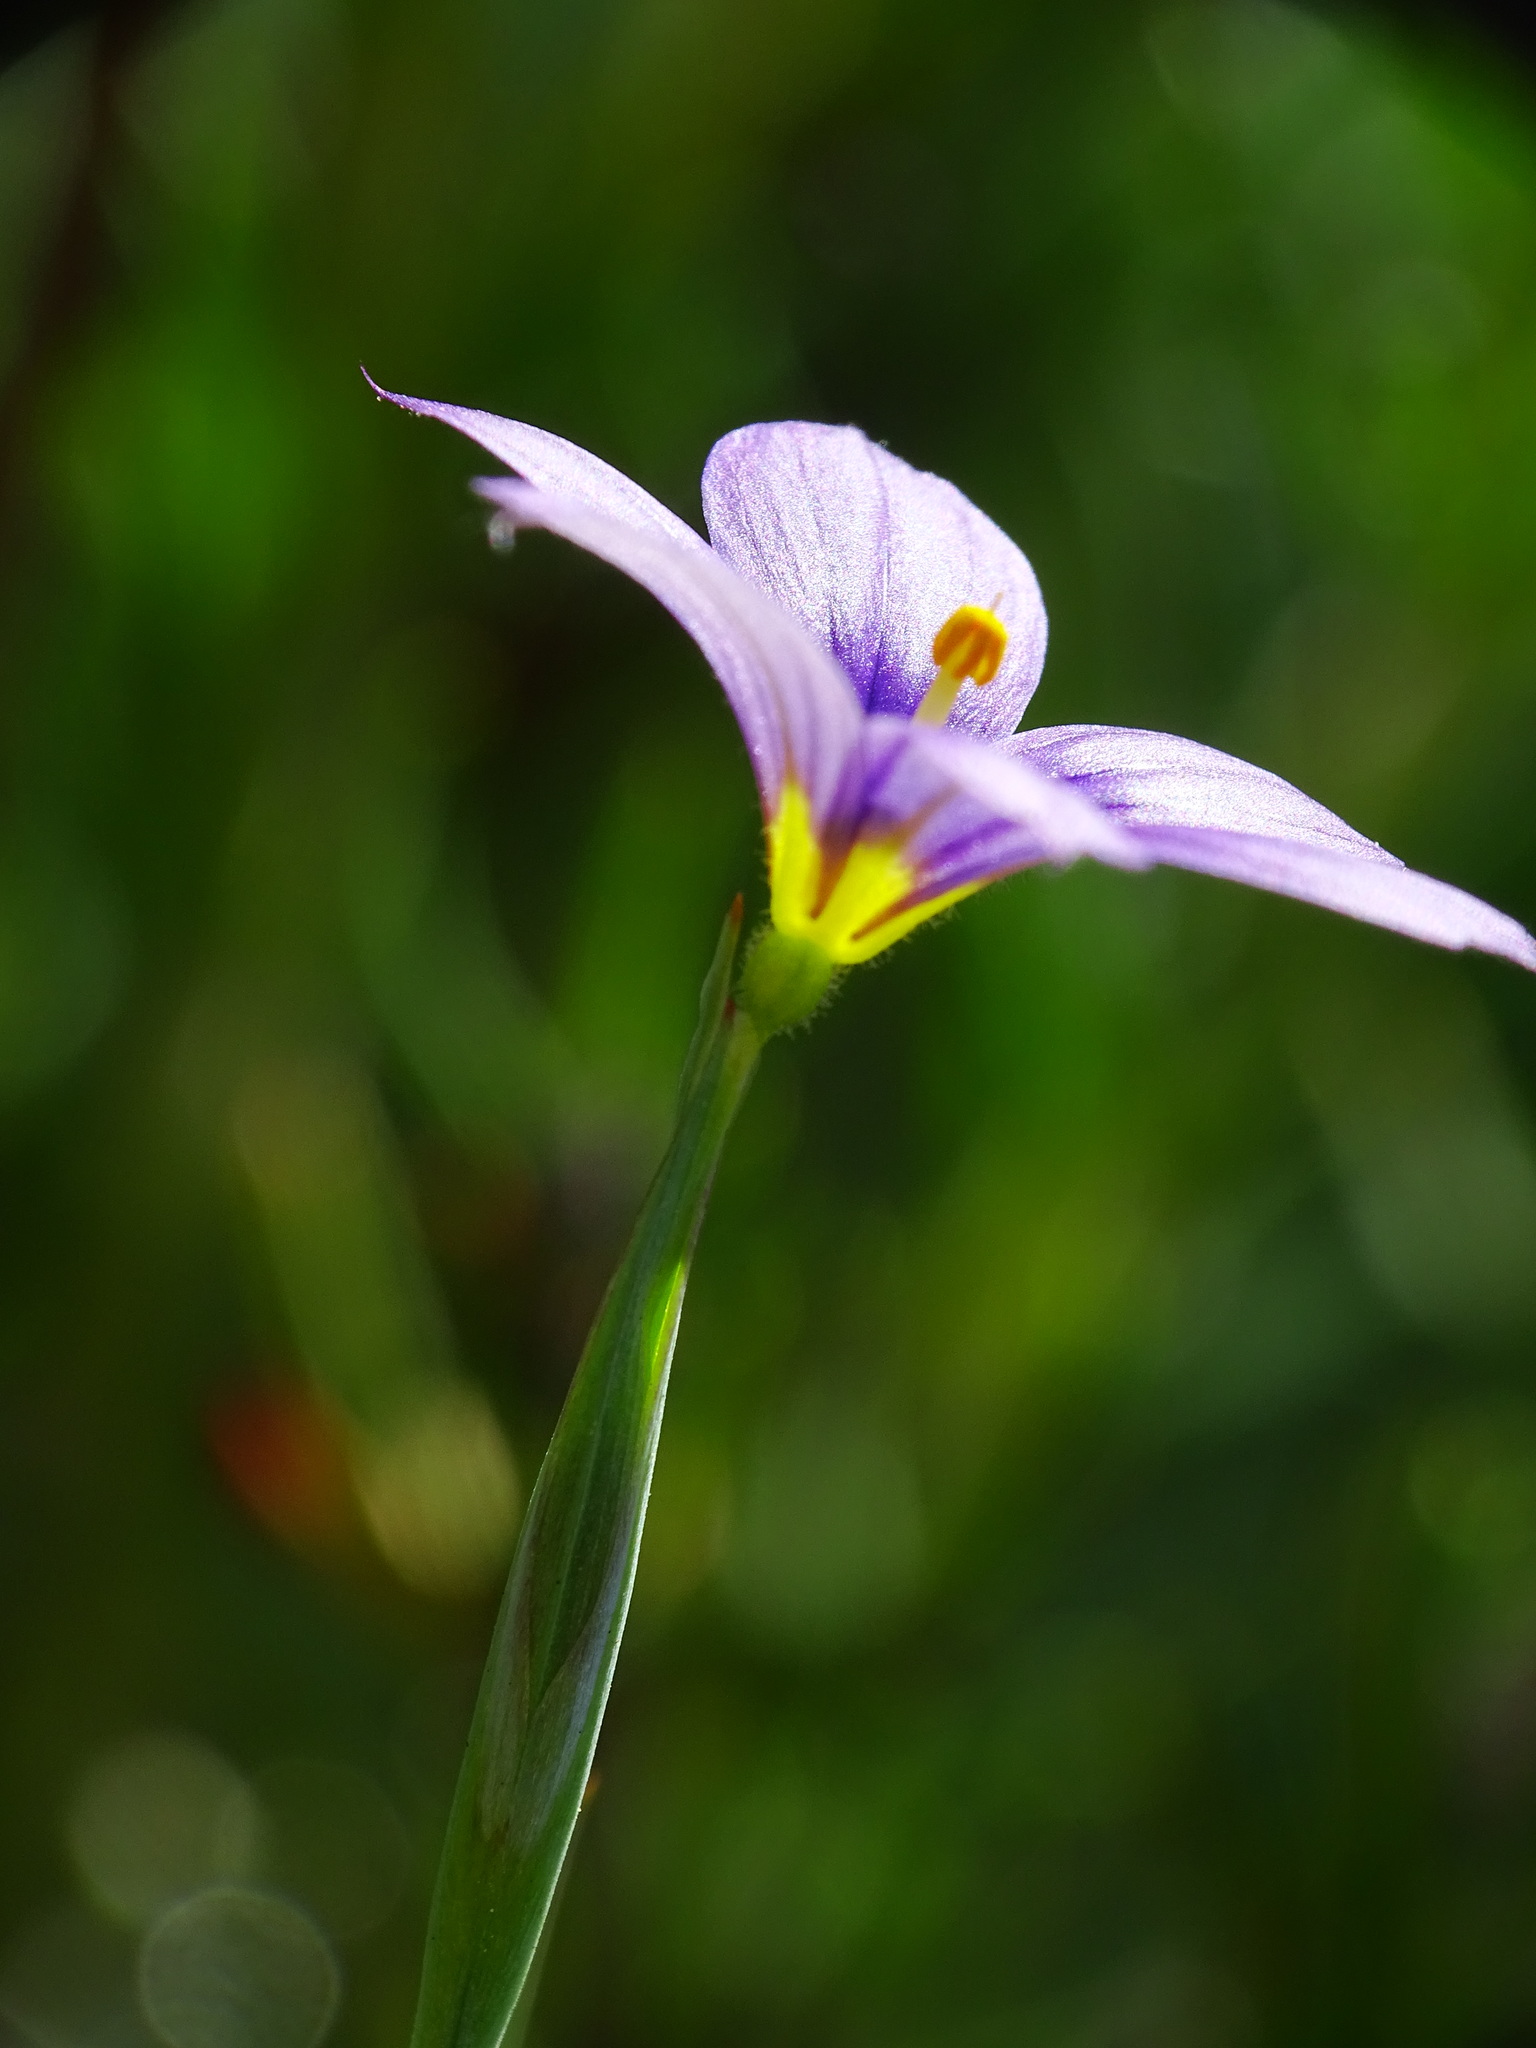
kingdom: Plantae
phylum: Tracheophyta
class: Liliopsida
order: Asparagales
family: Iridaceae
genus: Sisyrinchium
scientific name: Sisyrinchium bellum
